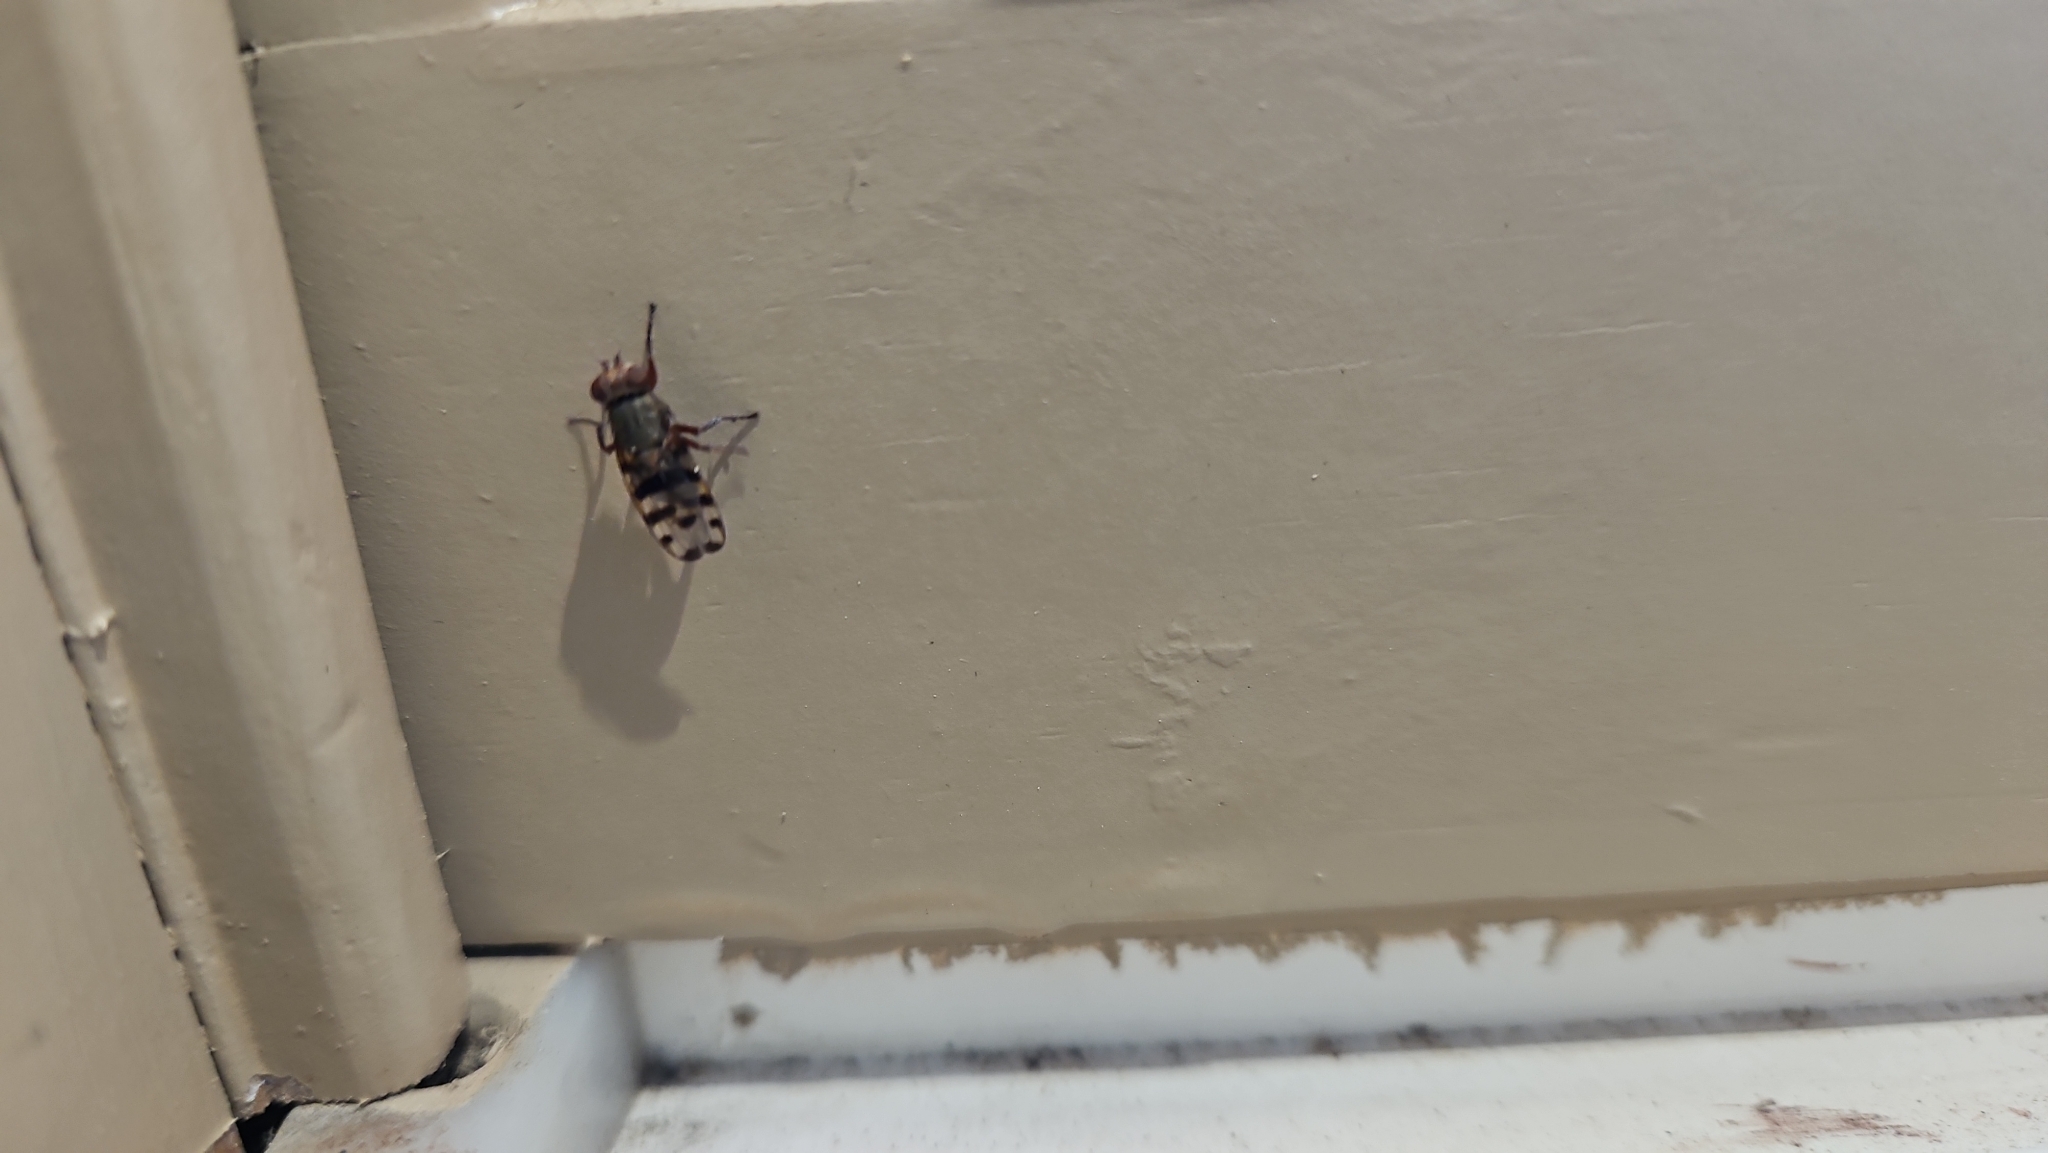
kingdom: Animalia
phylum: Arthropoda
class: Insecta
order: Diptera
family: Ulidiidae
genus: Ceroxys
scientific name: Ceroxys latiusculus
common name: Picture-winged fly
